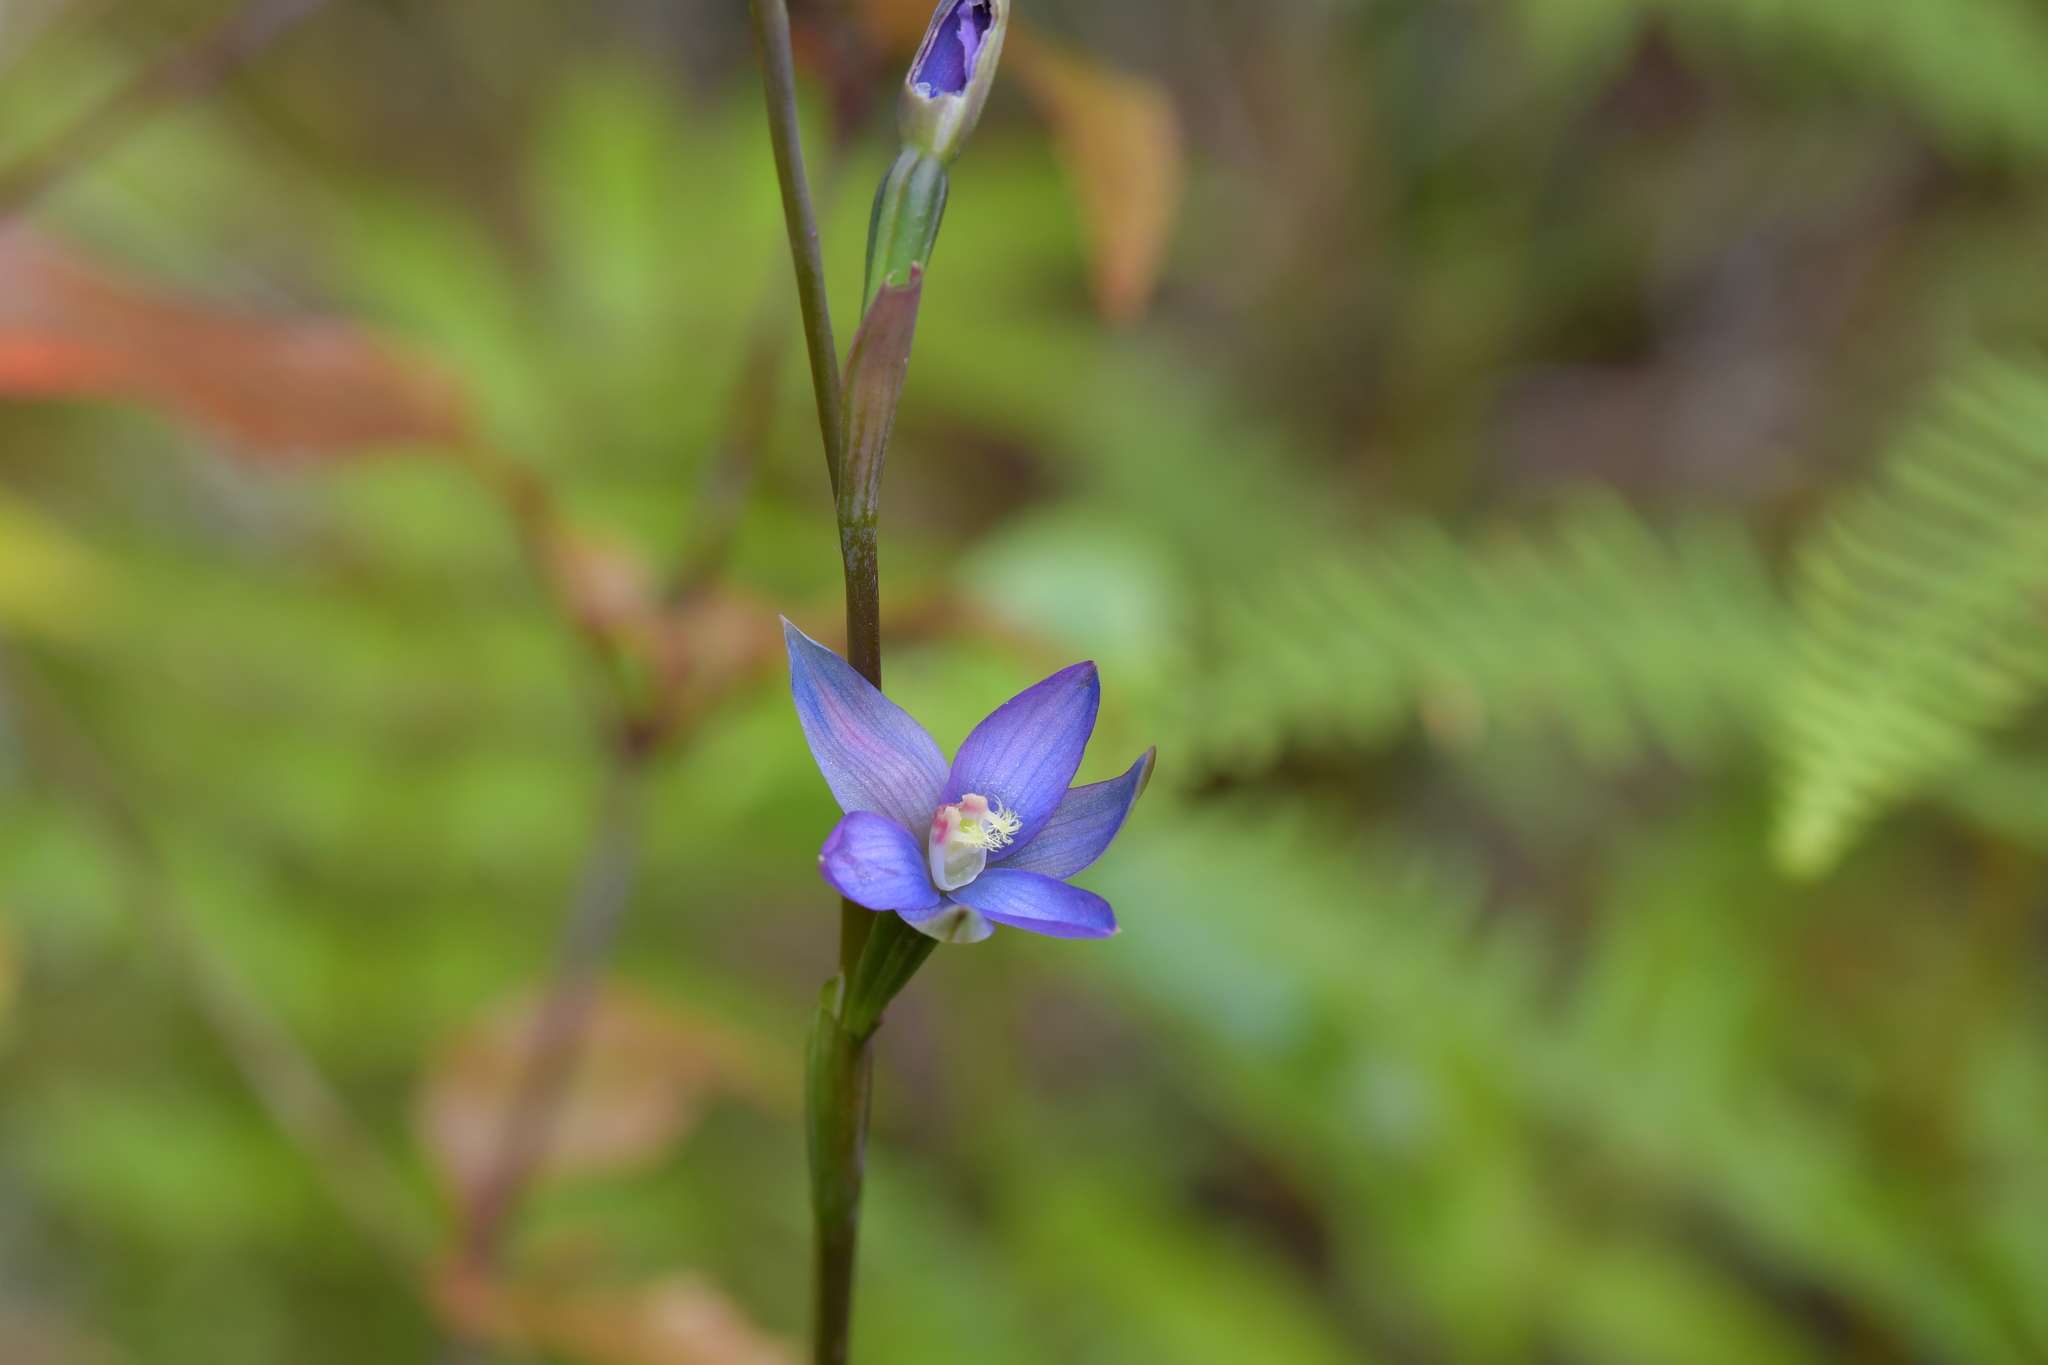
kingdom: Plantae
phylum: Tracheophyta
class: Liliopsida
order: Asparagales
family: Orchidaceae
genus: Thelymitra
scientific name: Thelymitra formosa
